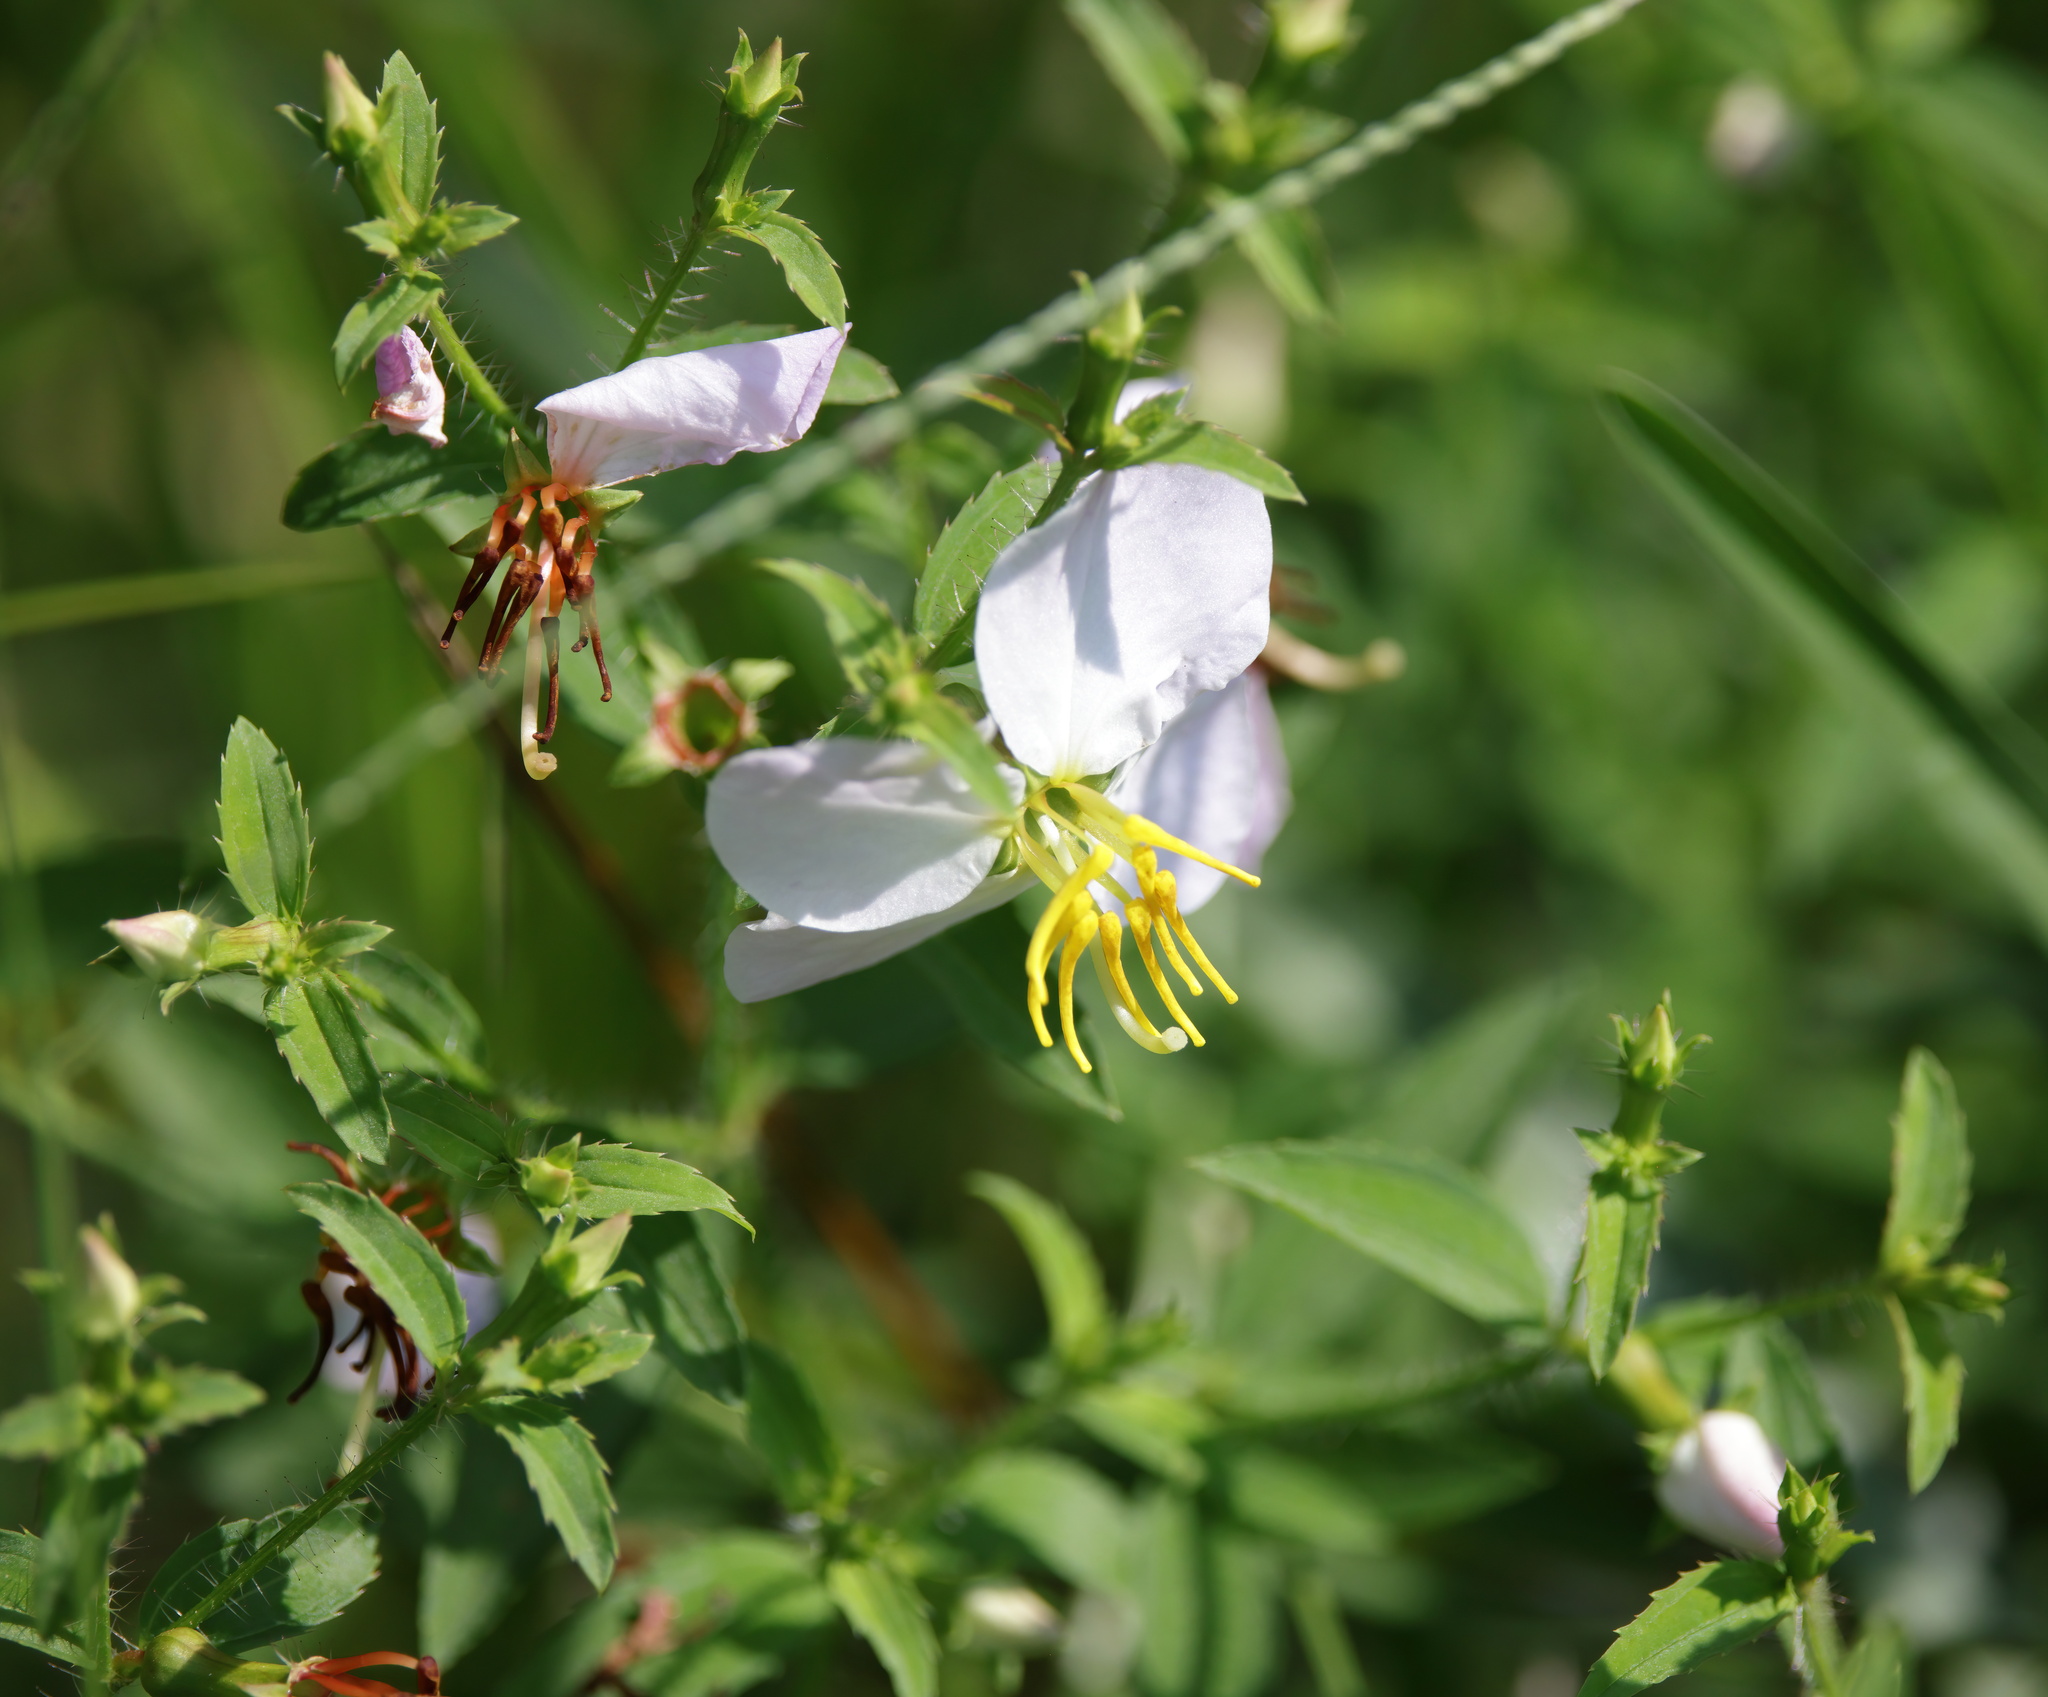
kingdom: Plantae
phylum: Tracheophyta
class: Magnoliopsida
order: Myrtales
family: Melastomataceae
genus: Rhexia
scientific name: Rhexia mariana
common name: Dull meadow-pitcher
